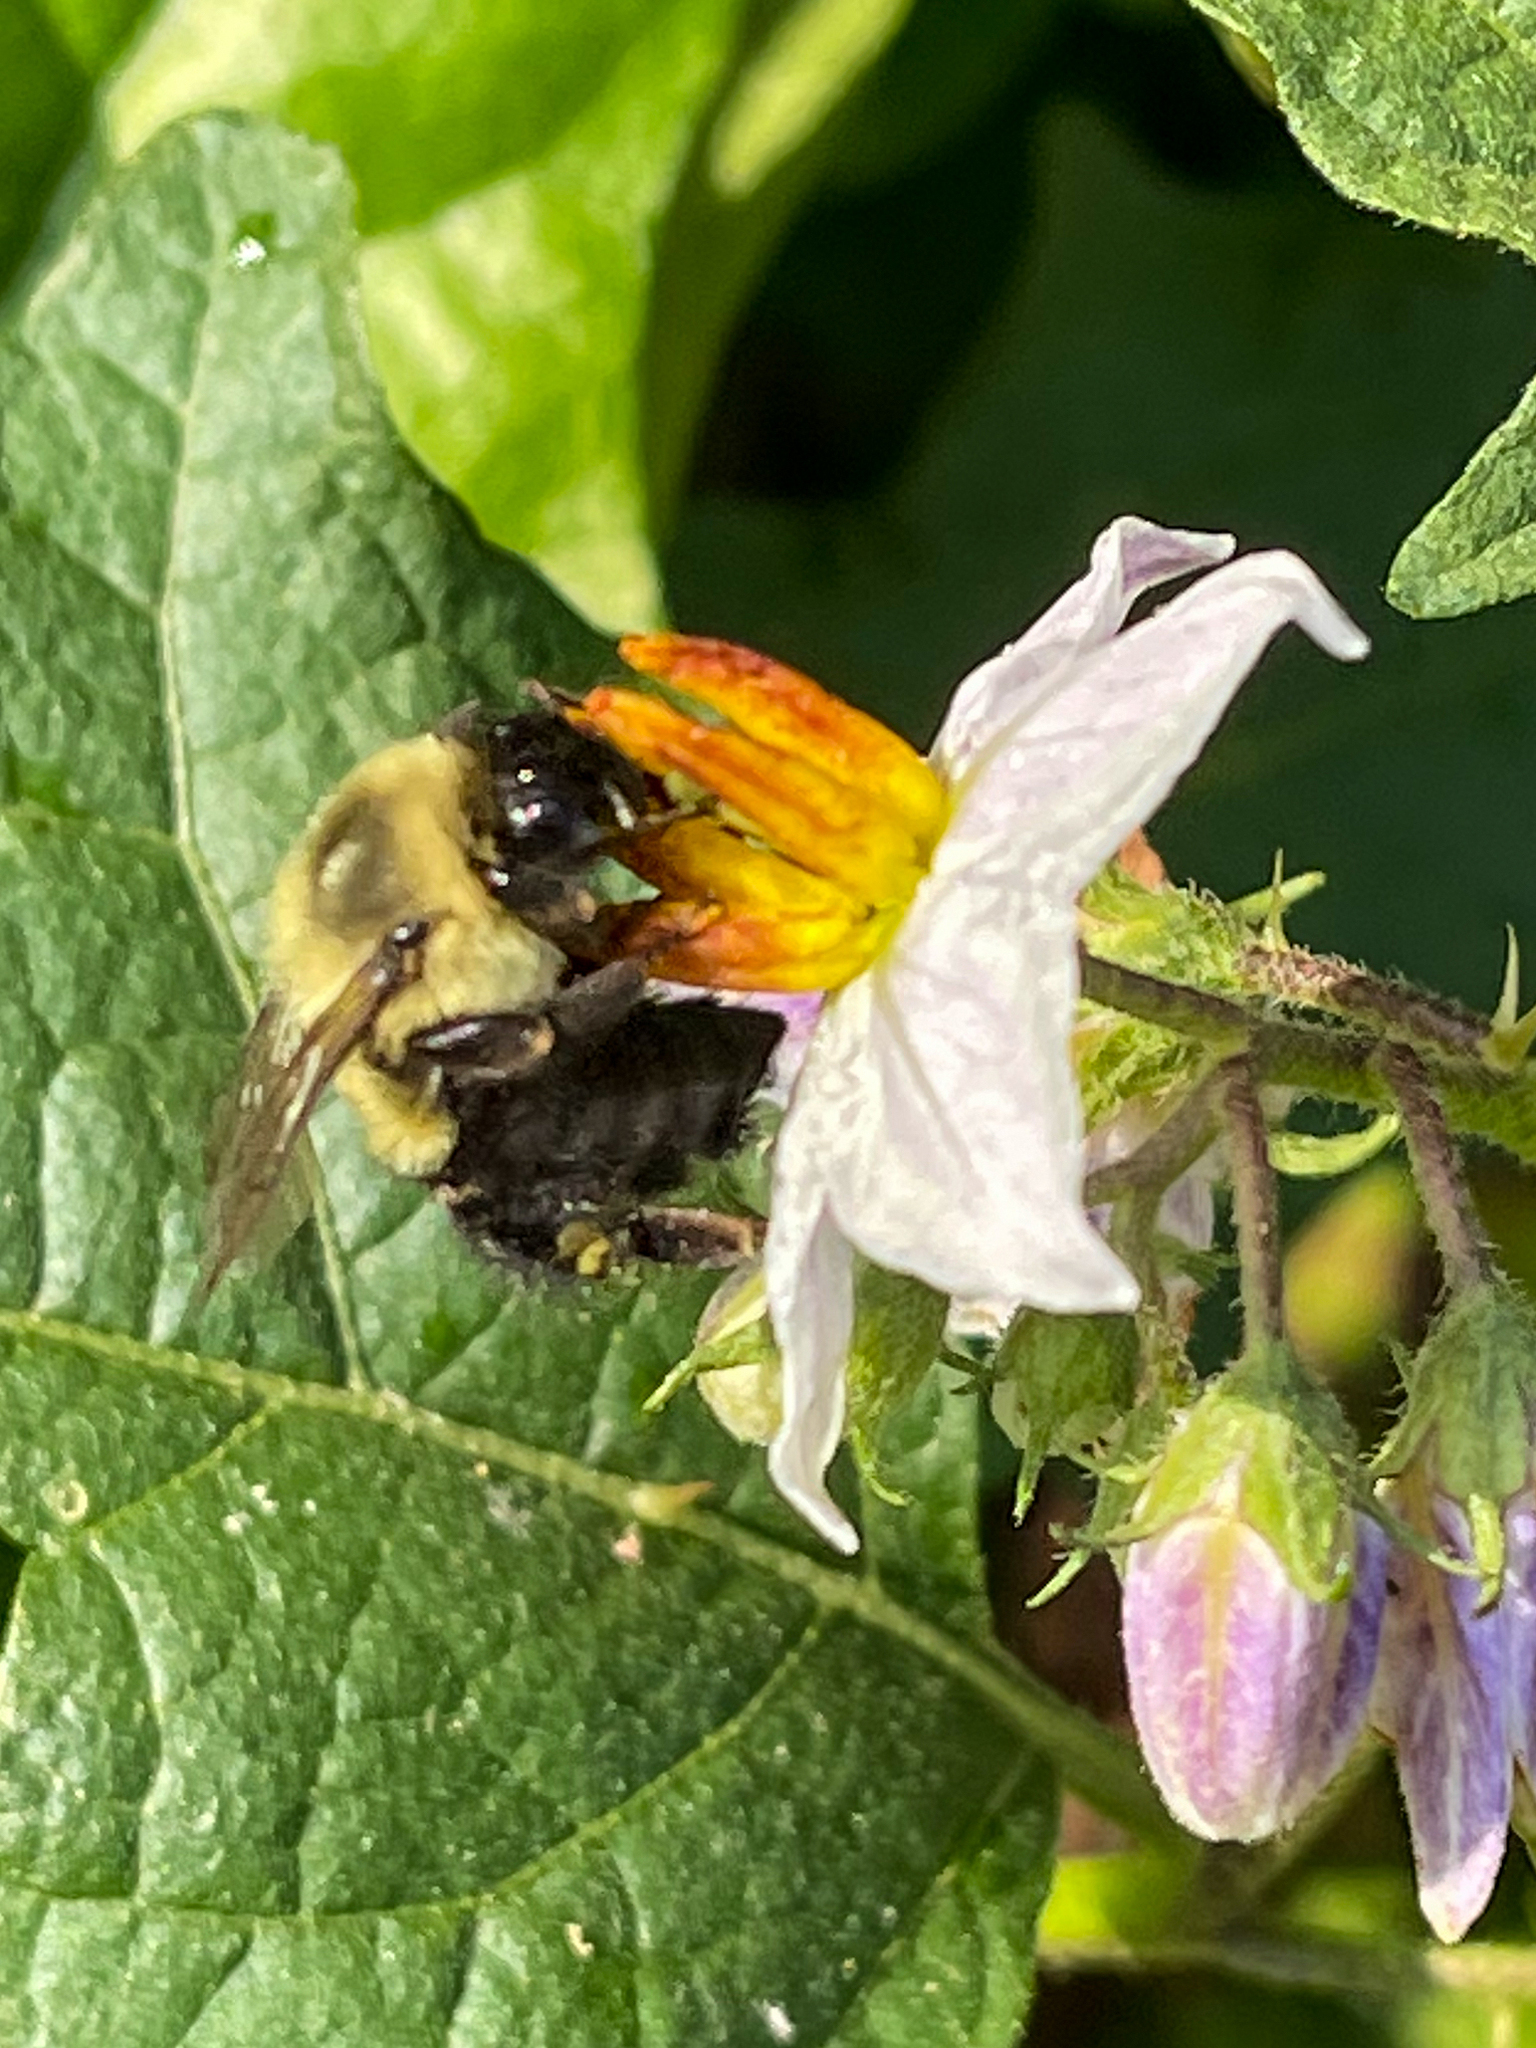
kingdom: Animalia
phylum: Arthropoda
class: Insecta
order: Hymenoptera
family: Apidae
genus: Bombus
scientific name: Bombus impatiens
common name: Common eastern bumble bee
